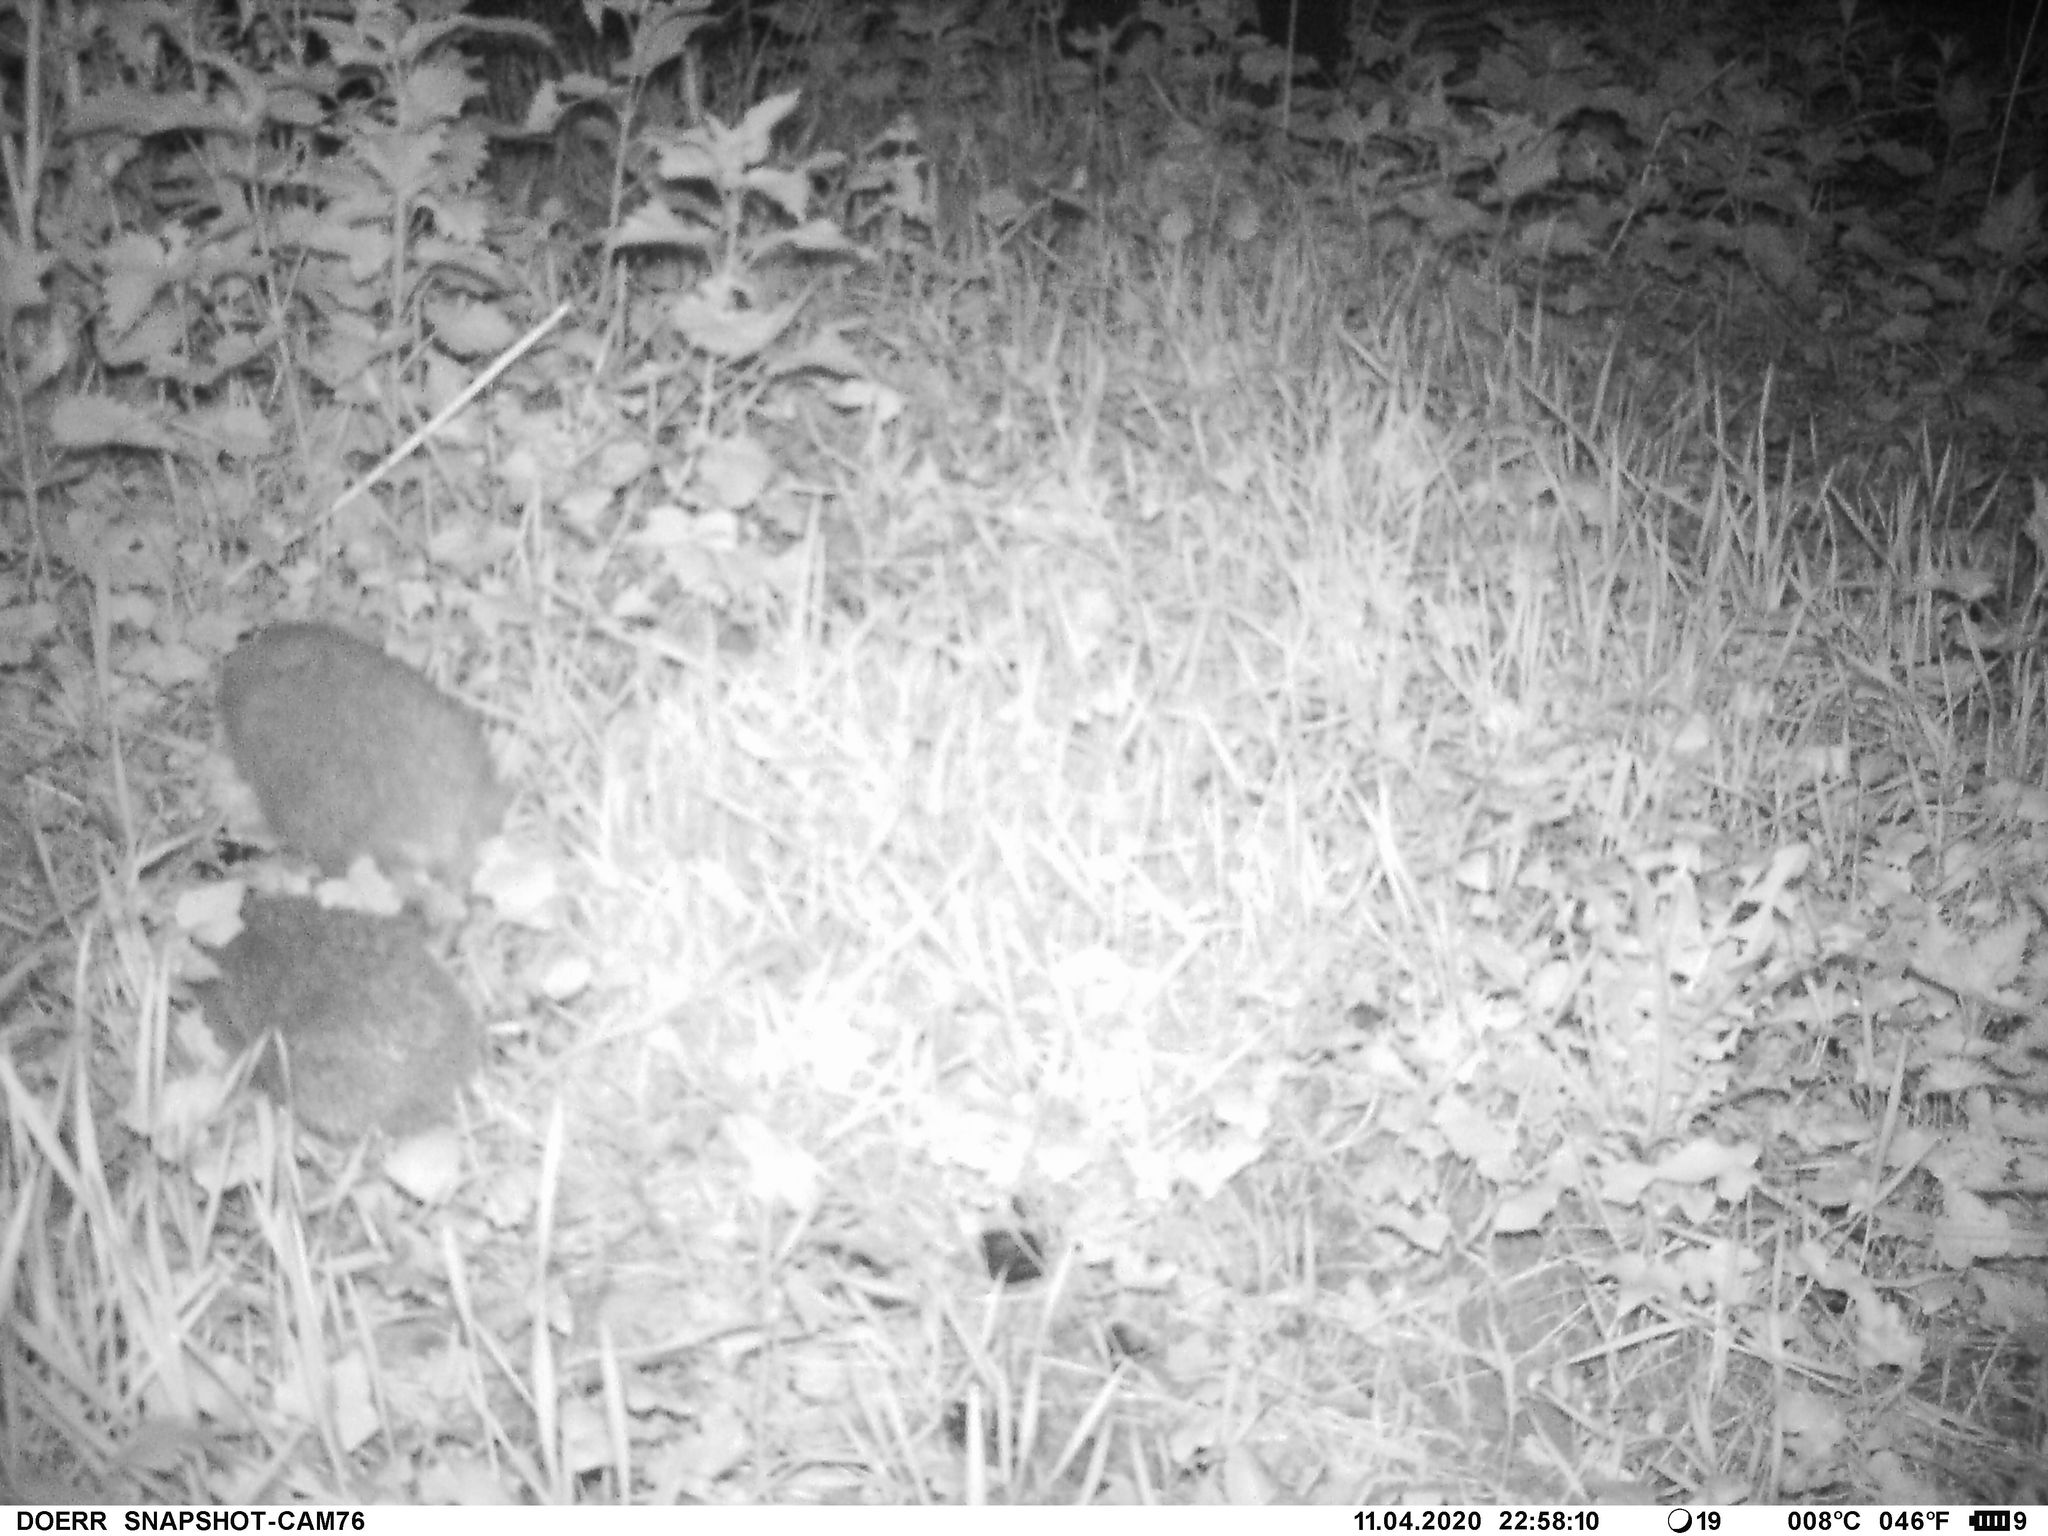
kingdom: Animalia
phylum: Chordata
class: Mammalia
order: Erinaceomorpha
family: Erinaceidae
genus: Erinaceus
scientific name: Erinaceus europaeus
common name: West european hedgehog
